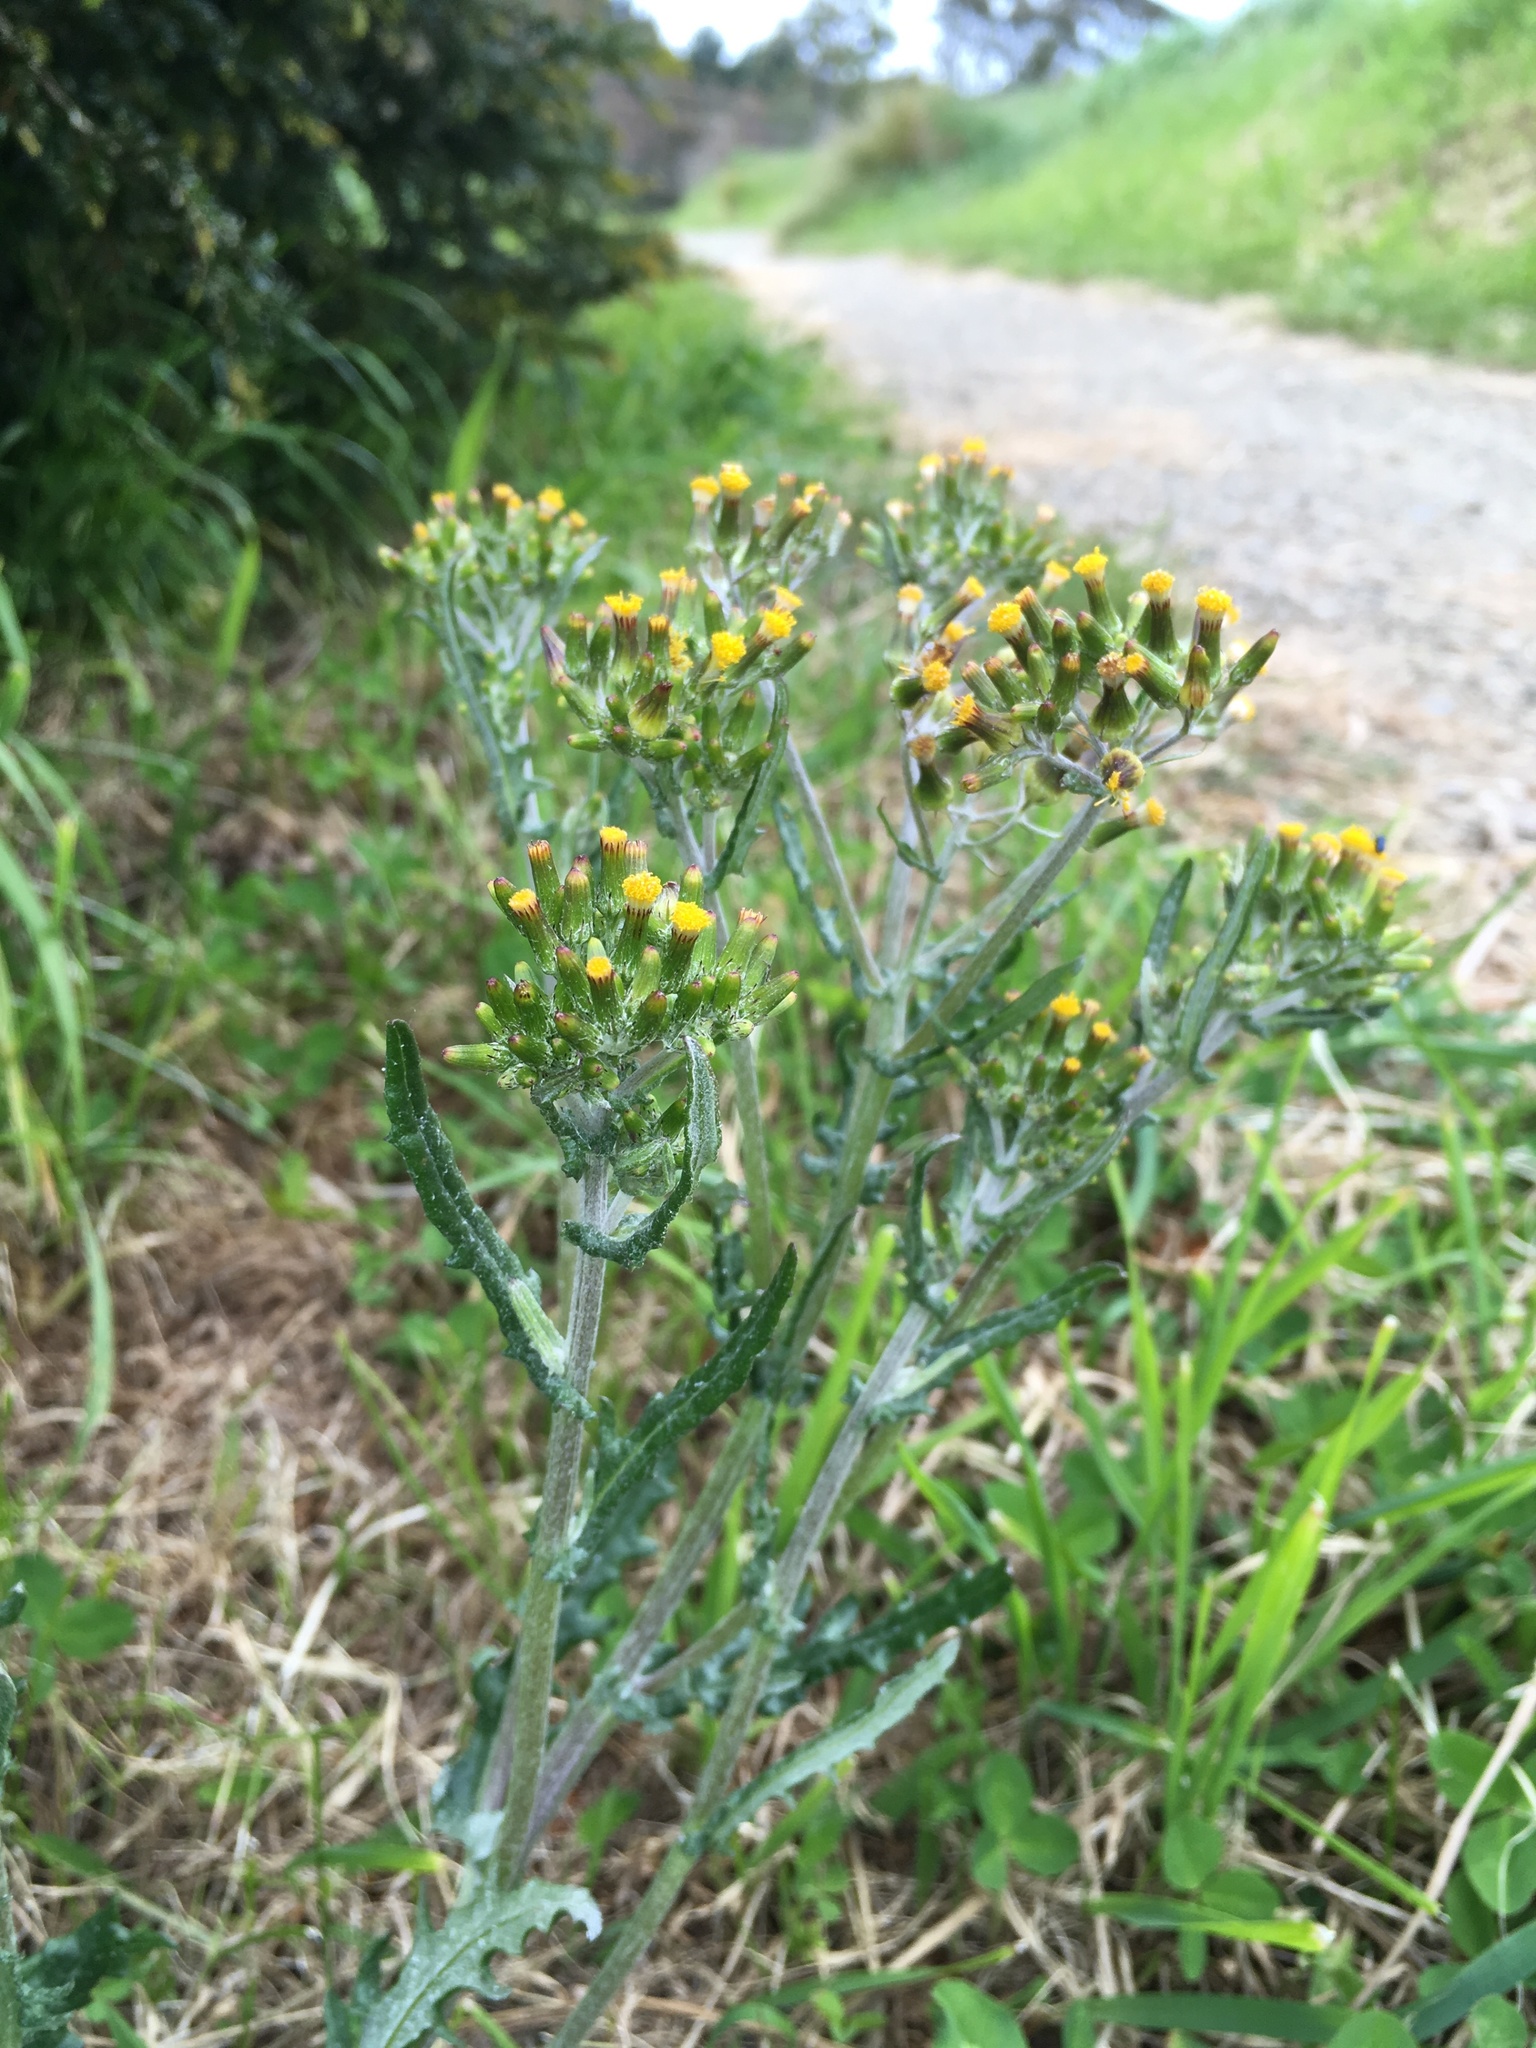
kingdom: Plantae
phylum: Tracheophyta
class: Magnoliopsida
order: Asterales
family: Asteraceae
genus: Senecio
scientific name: Senecio glomeratus
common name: Cutleaf burnweed
